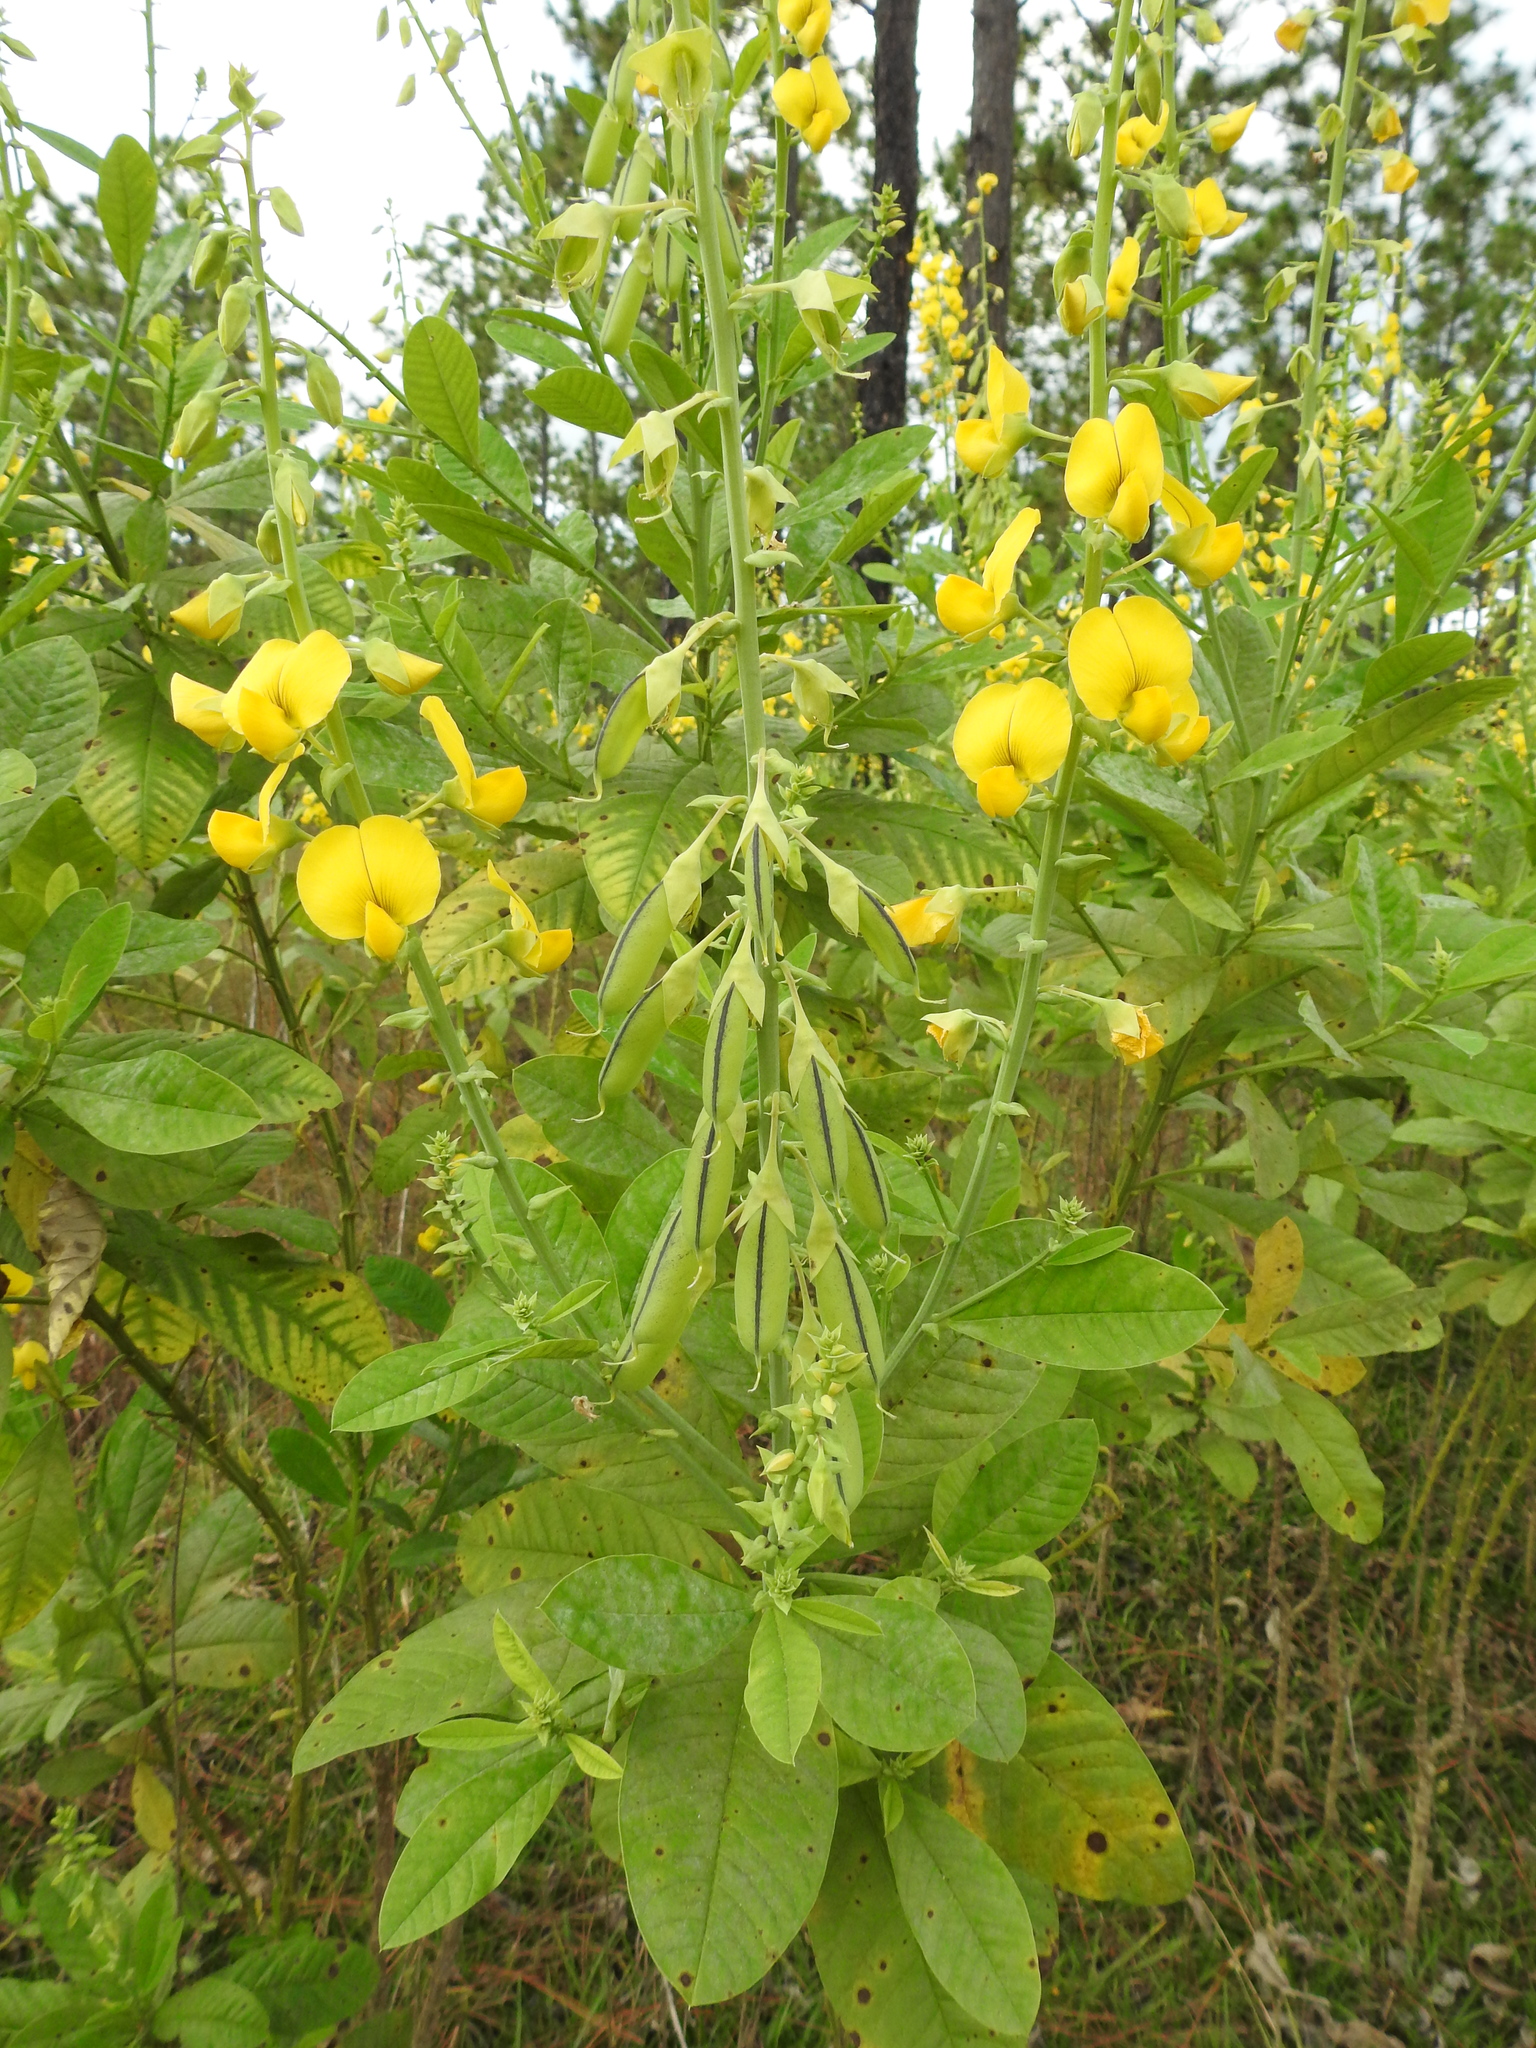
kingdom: Plantae
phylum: Tracheophyta
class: Magnoliopsida
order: Fabales
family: Fabaceae
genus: Crotalaria
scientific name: Crotalaria spectabilis
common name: Showy rattlebox
